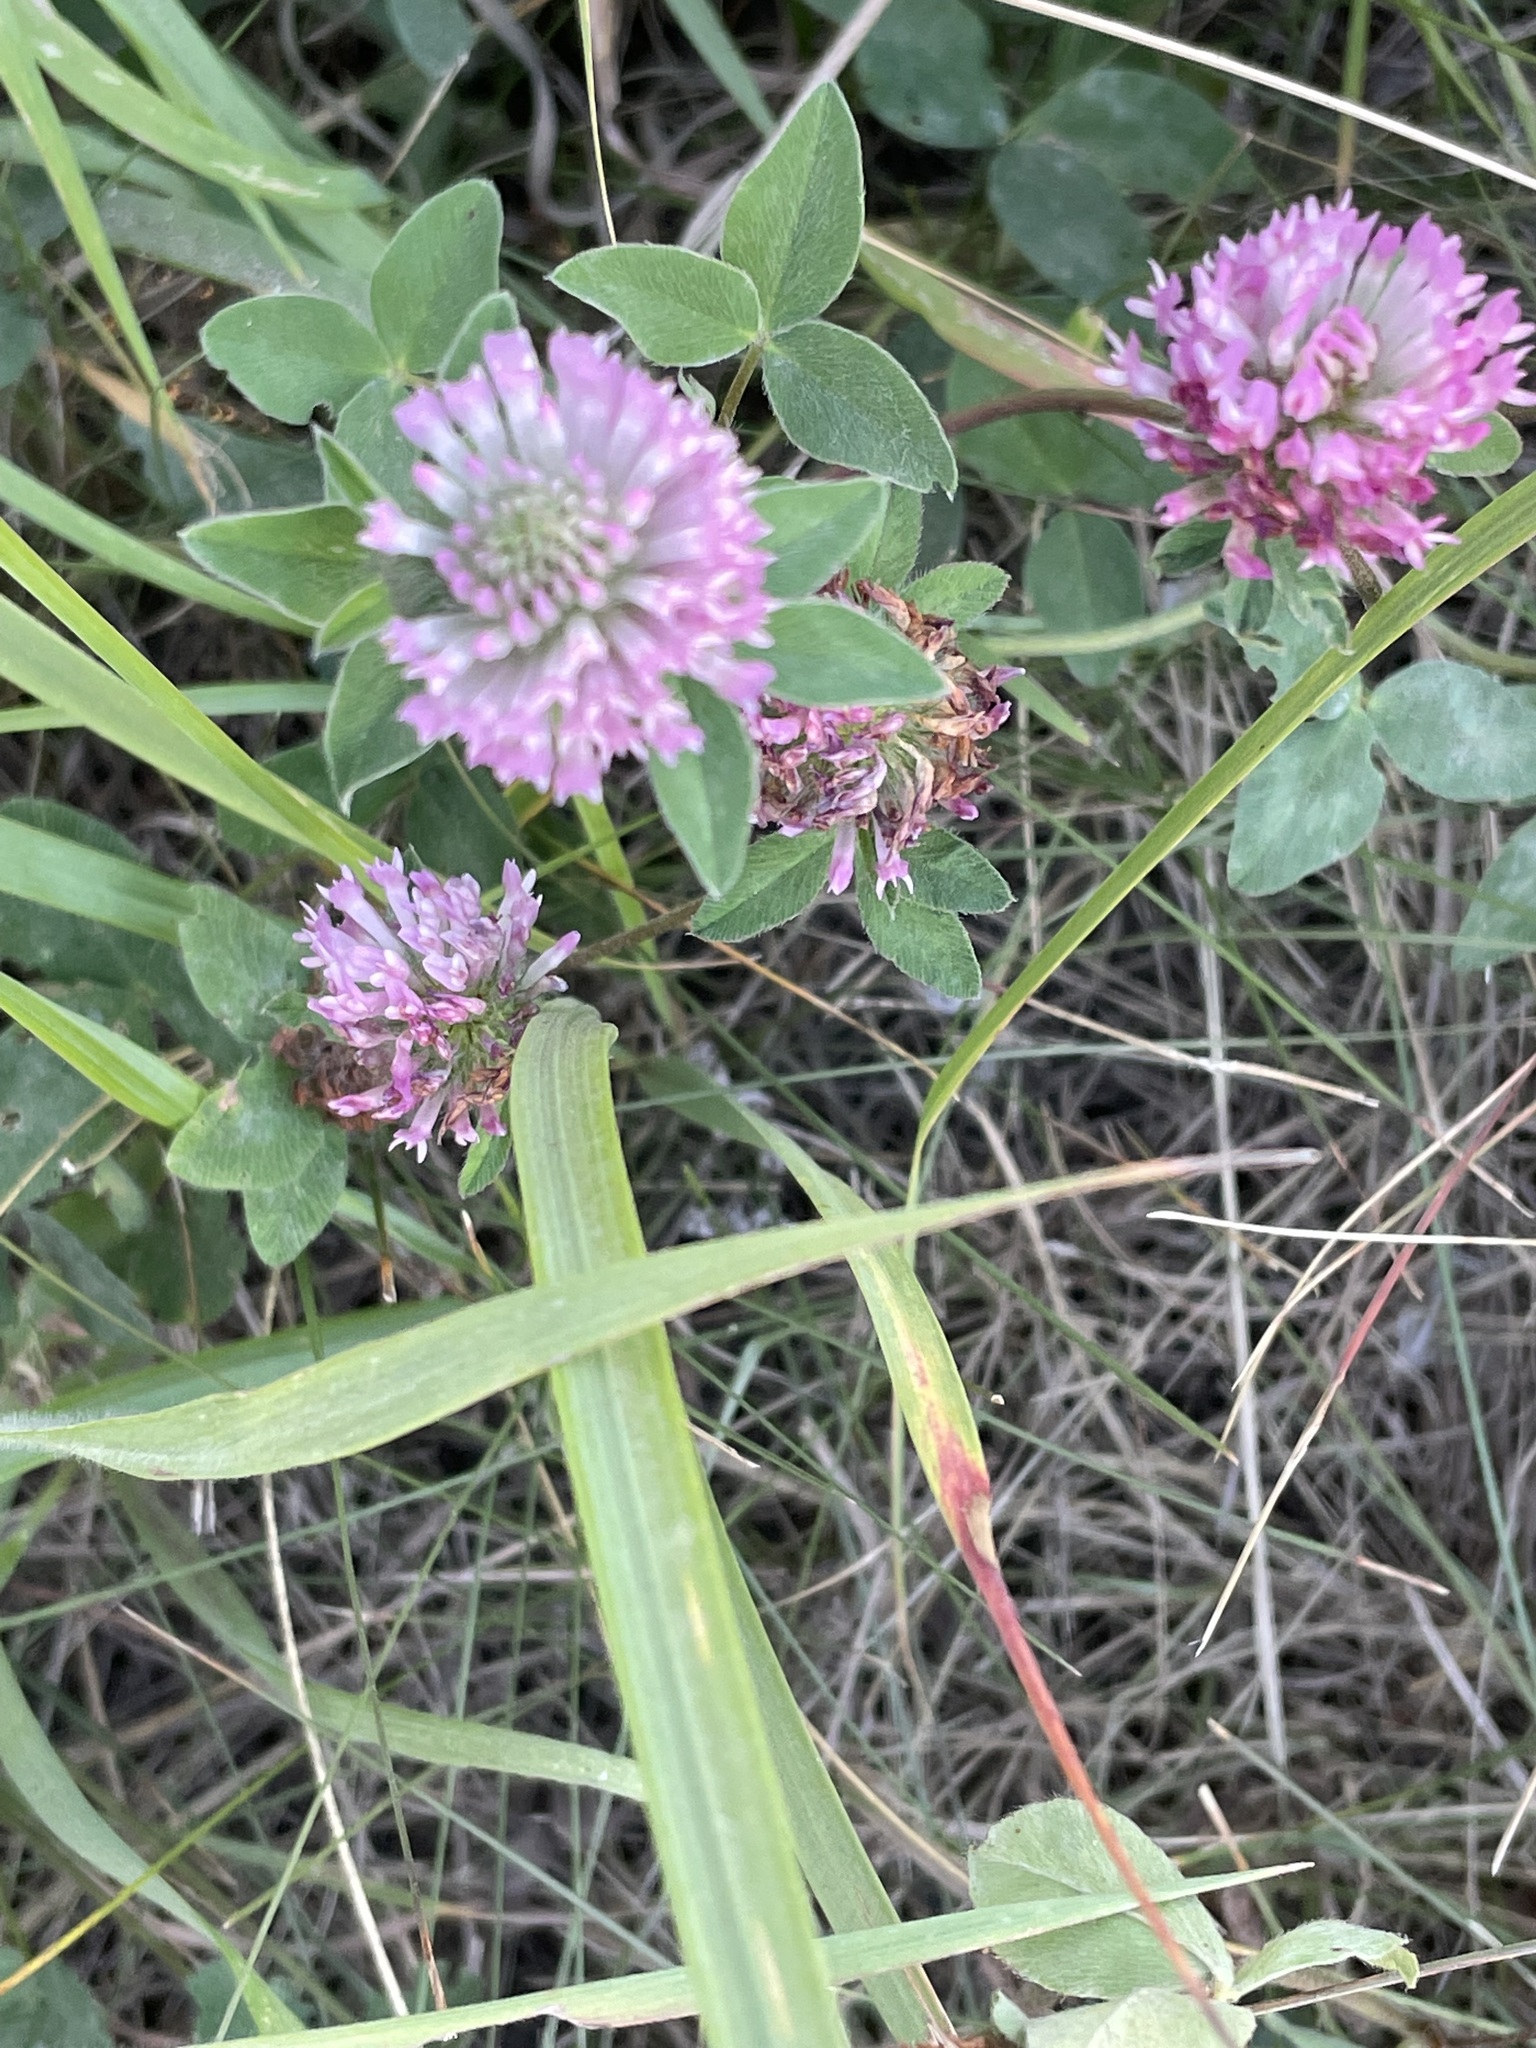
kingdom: Plantae
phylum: Tracheophyta
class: Magnoliopsida
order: Fabales
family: Fabaceae
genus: Trifolium
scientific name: Trifolium pratense
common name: Red clover
